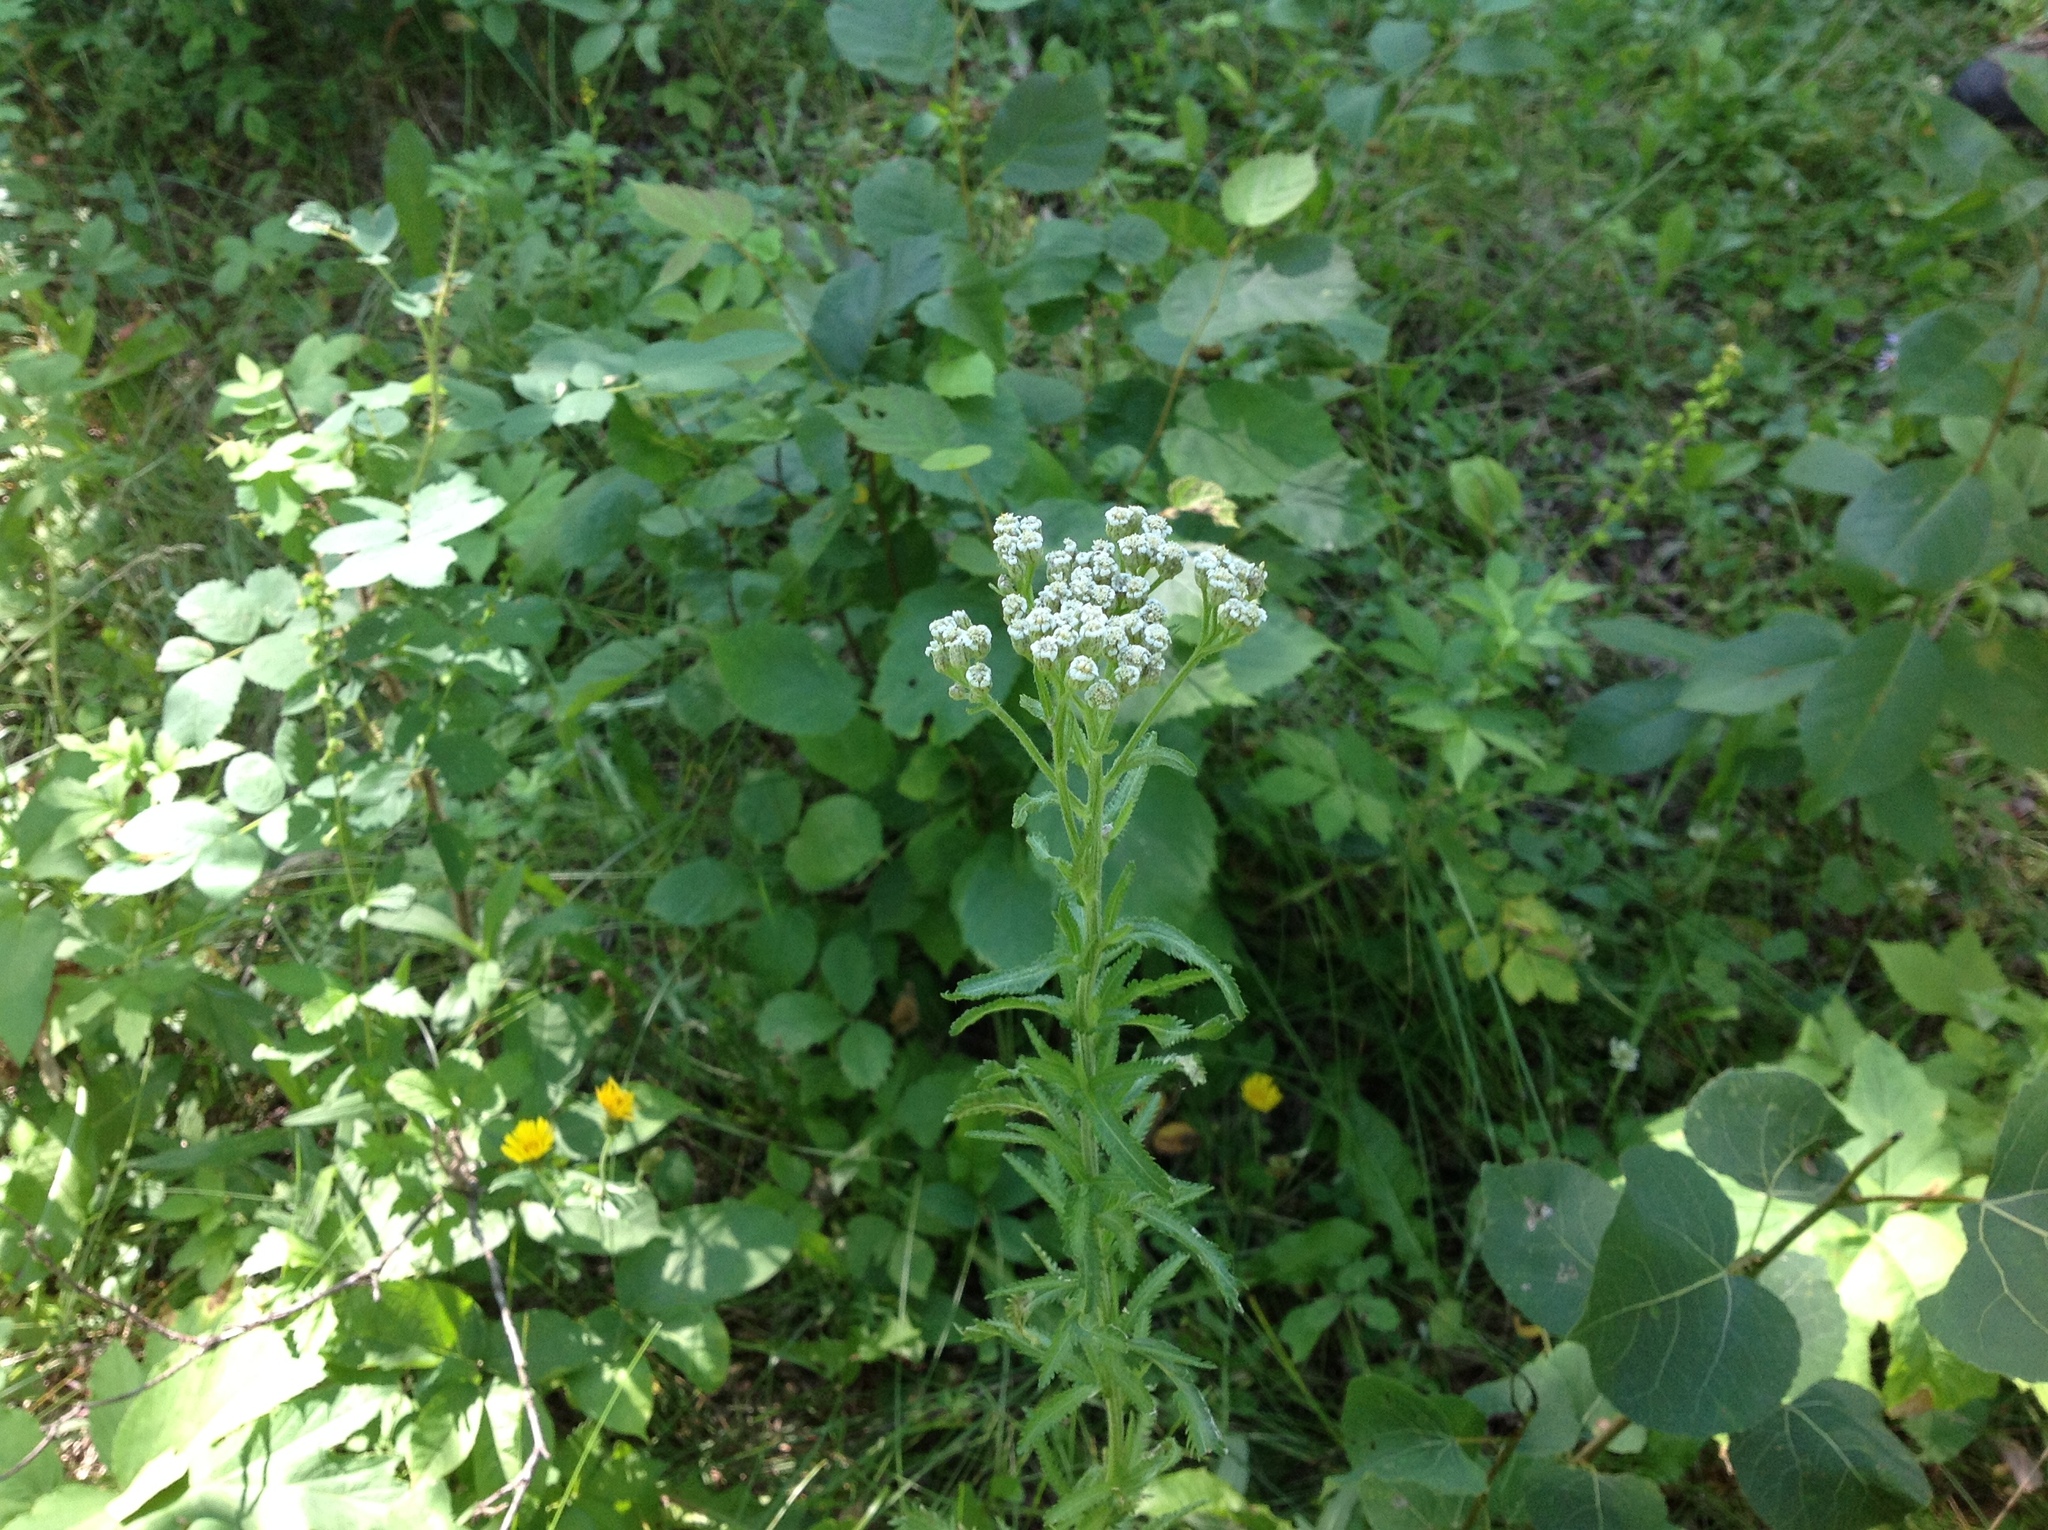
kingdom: Plantae
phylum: Tracheophyta
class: Magnoliopsida
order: Asterales
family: Asteraceae
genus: Achillea
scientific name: Achillea alpina
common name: Siberian yarrow
